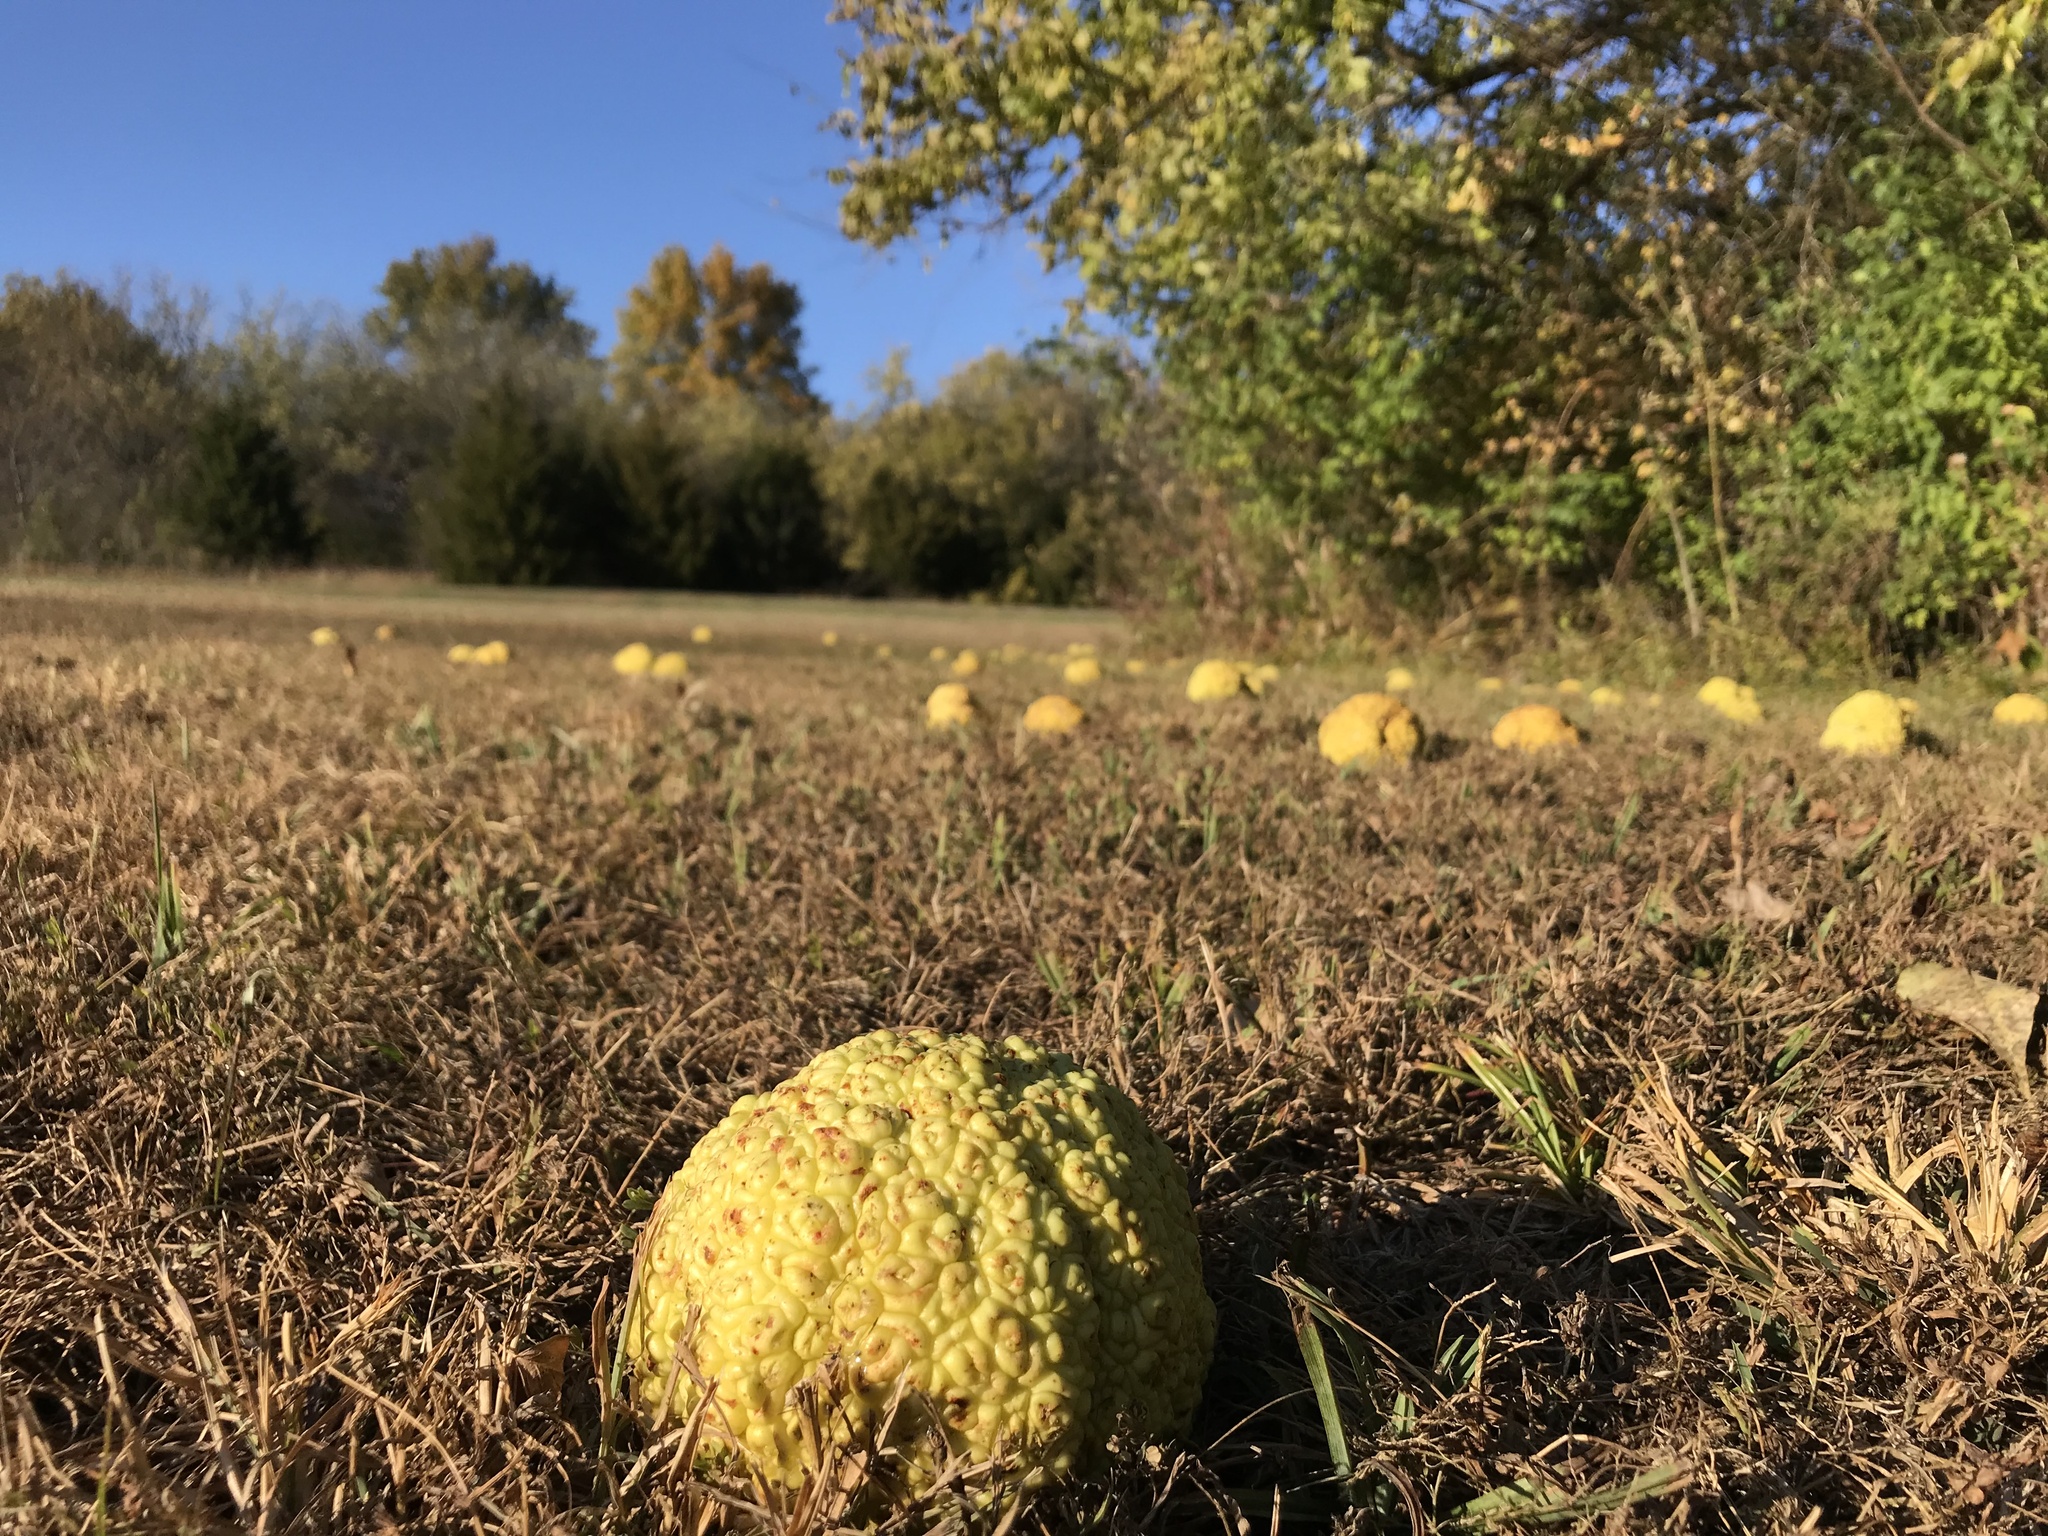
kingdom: Plantae
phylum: Tracheophyta
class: Magnoliopsida
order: Rosales
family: Moraceae
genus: Maclura
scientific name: Maclura pomifera
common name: Osage-orange
